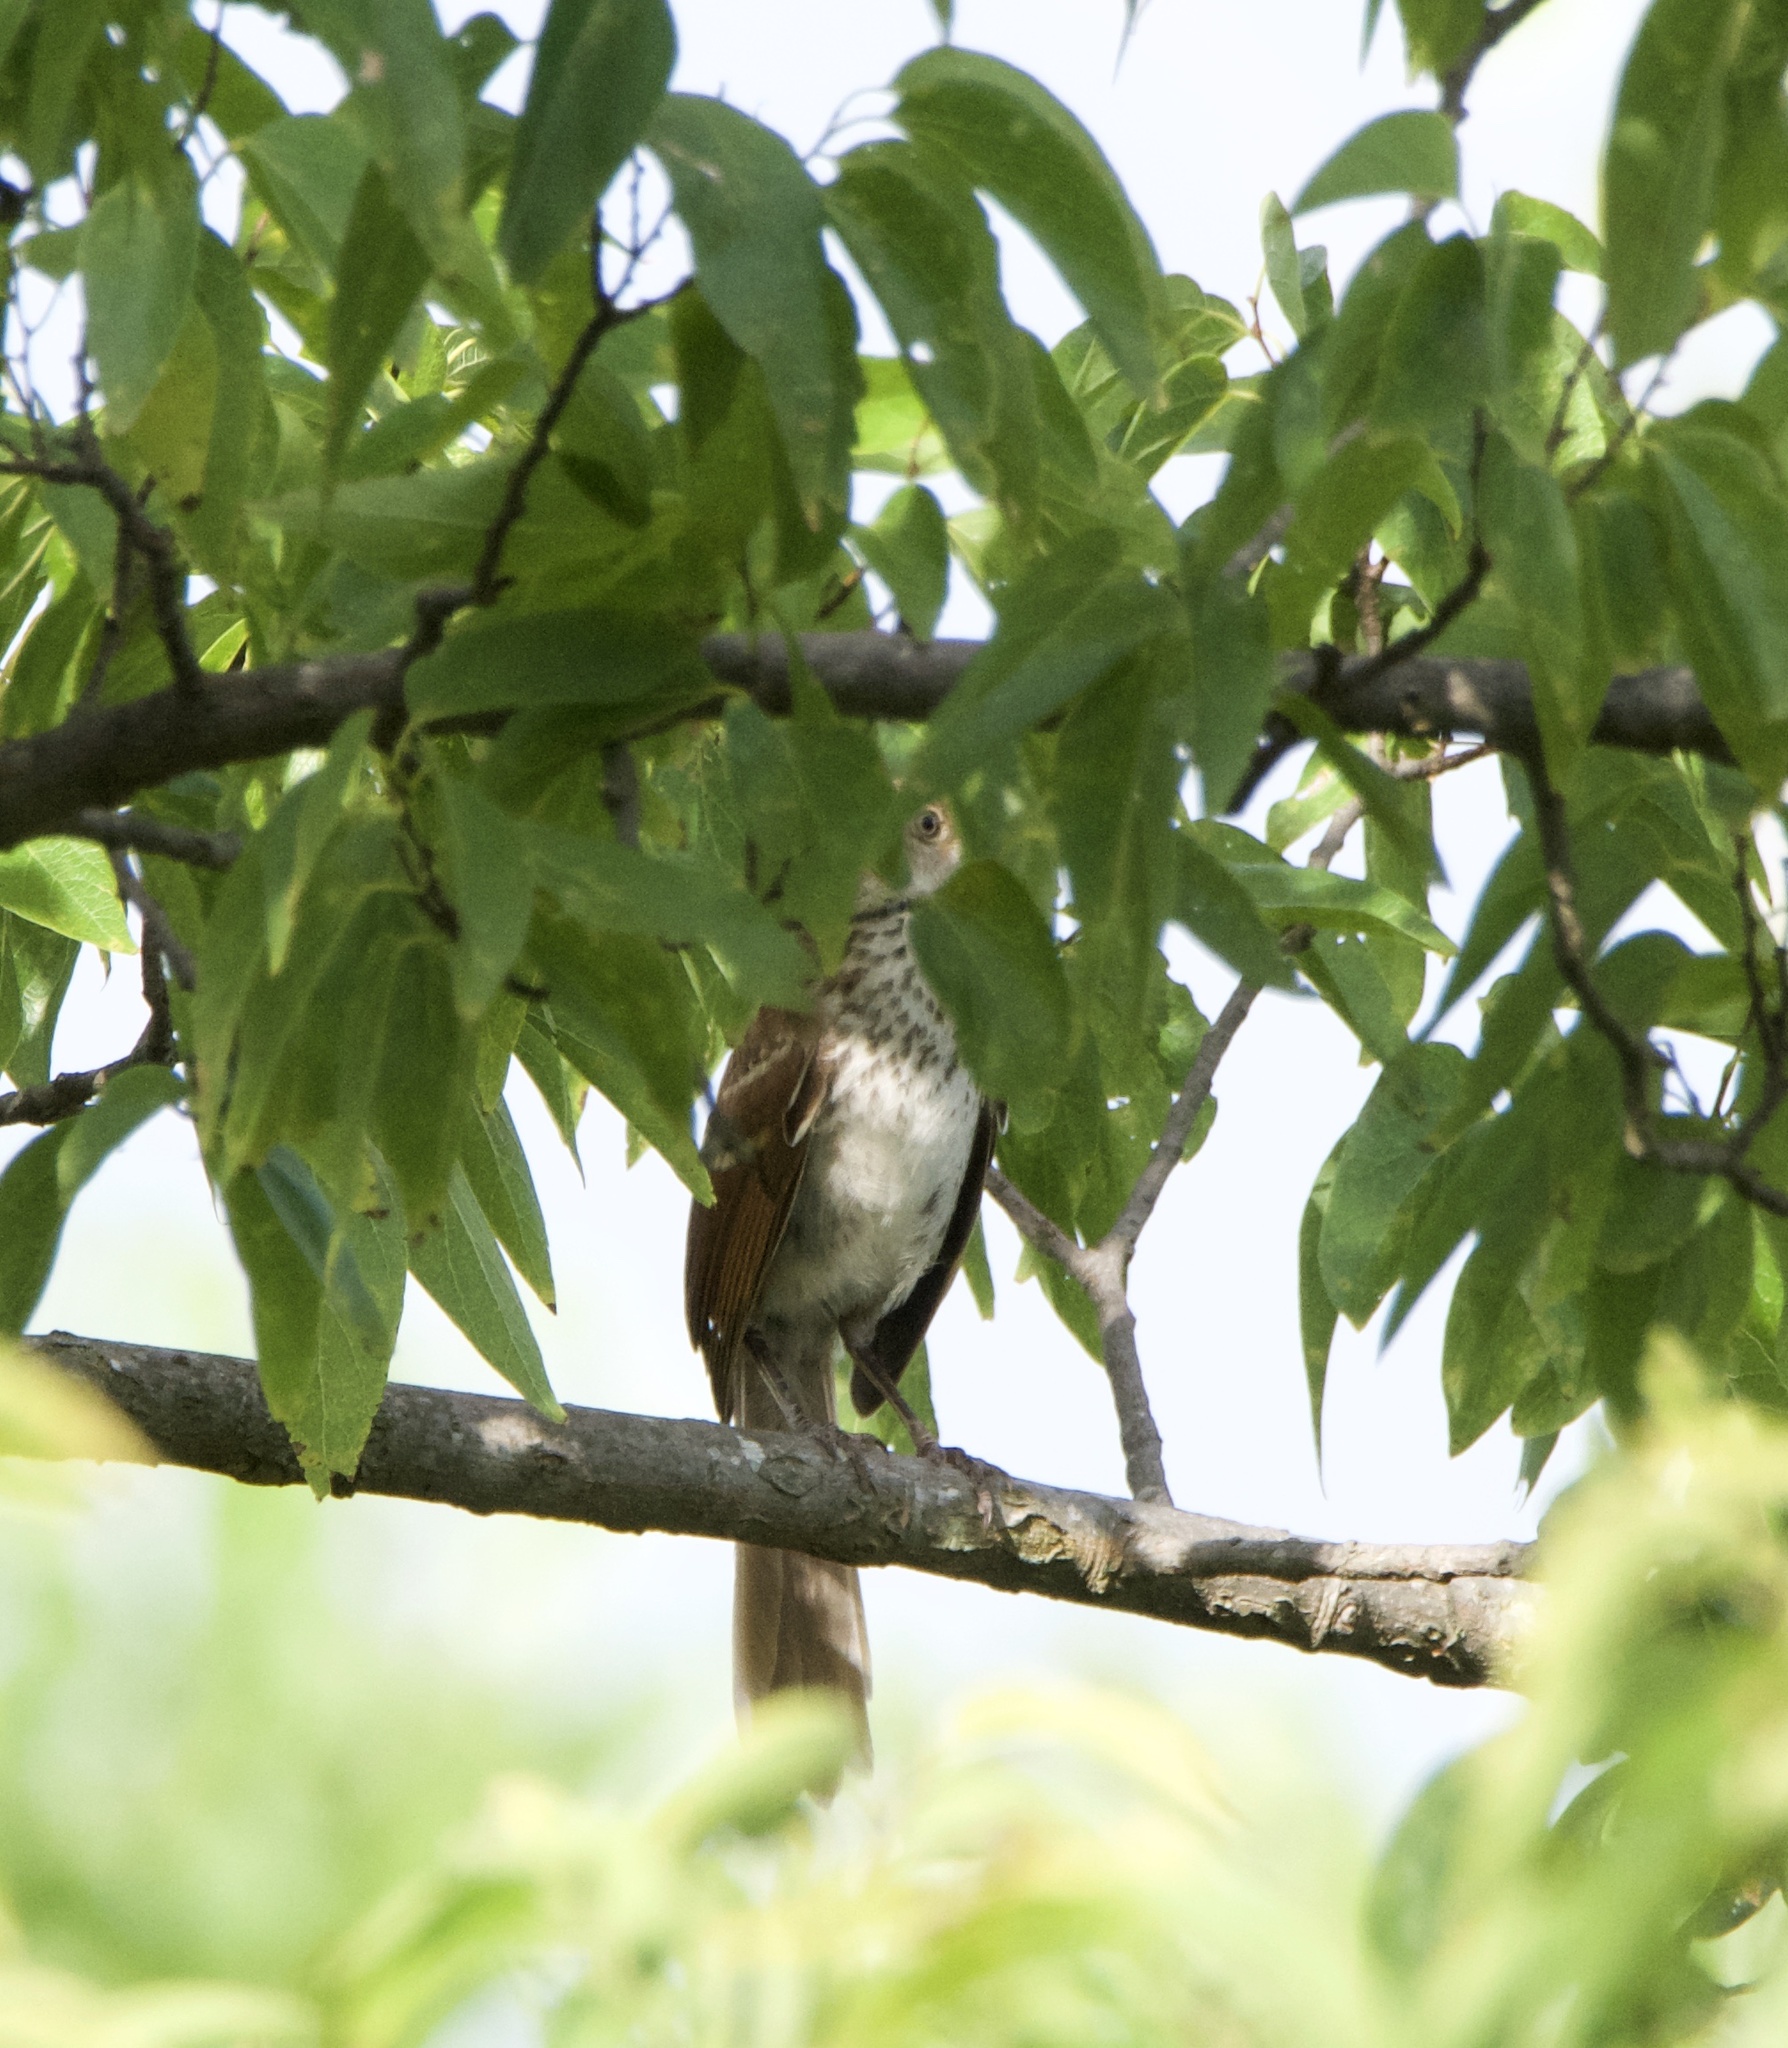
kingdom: Animalia
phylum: Chordata
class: Aves
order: Passeriformes
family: Mimidae
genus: Toxostoma
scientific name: Toxostoma rufum
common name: Brown thrasher
